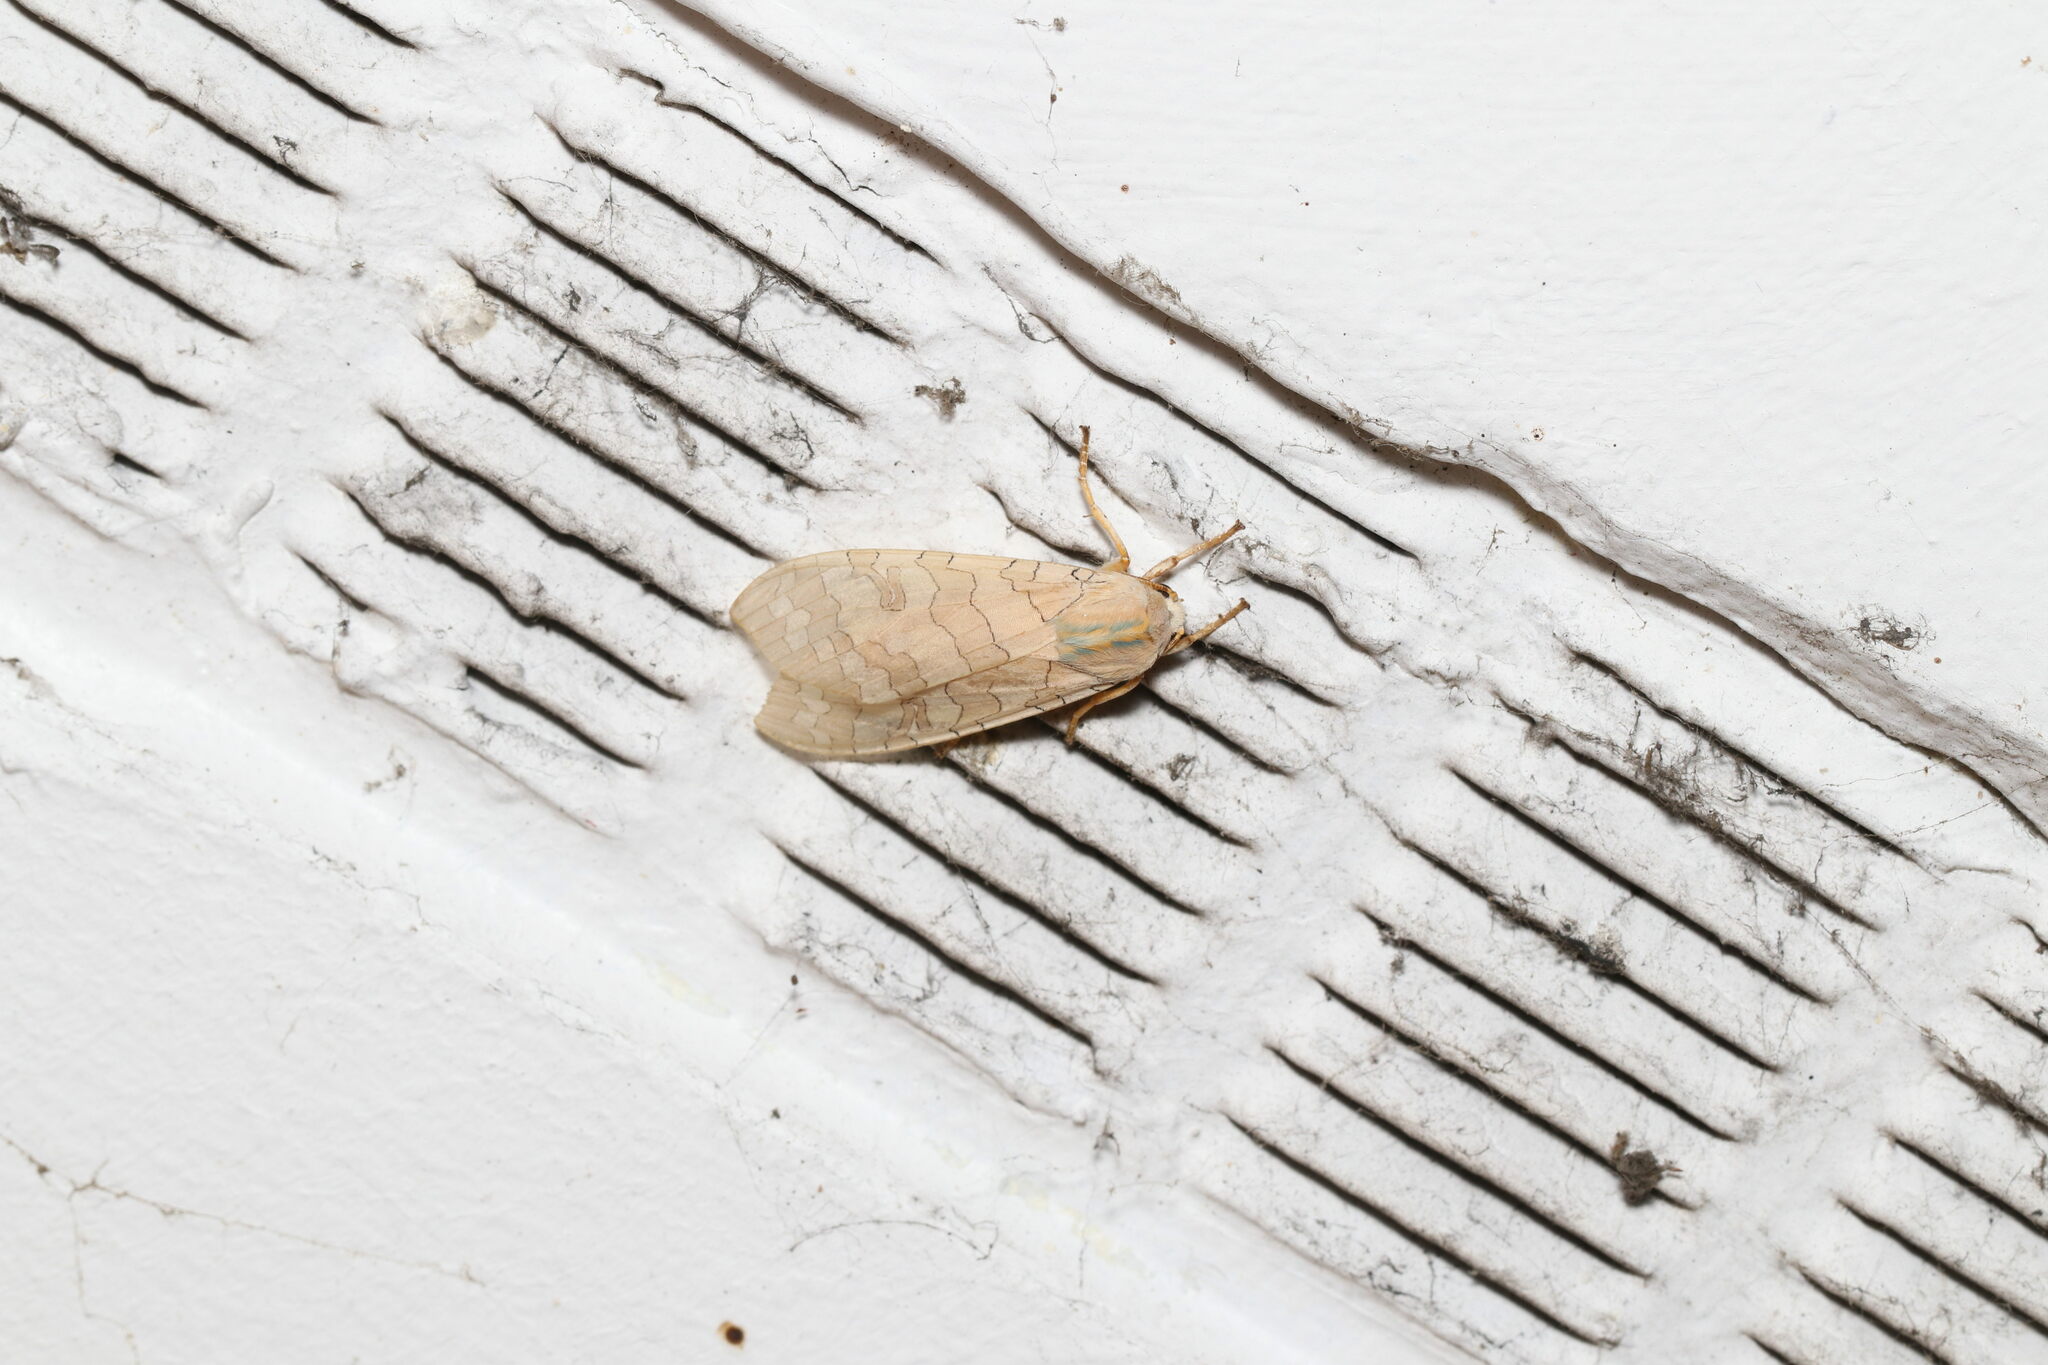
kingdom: Animalia
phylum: Arthropoda
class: Insecta
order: Lepidoptera
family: Erebidae
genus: Halysidota
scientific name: Halysidota
